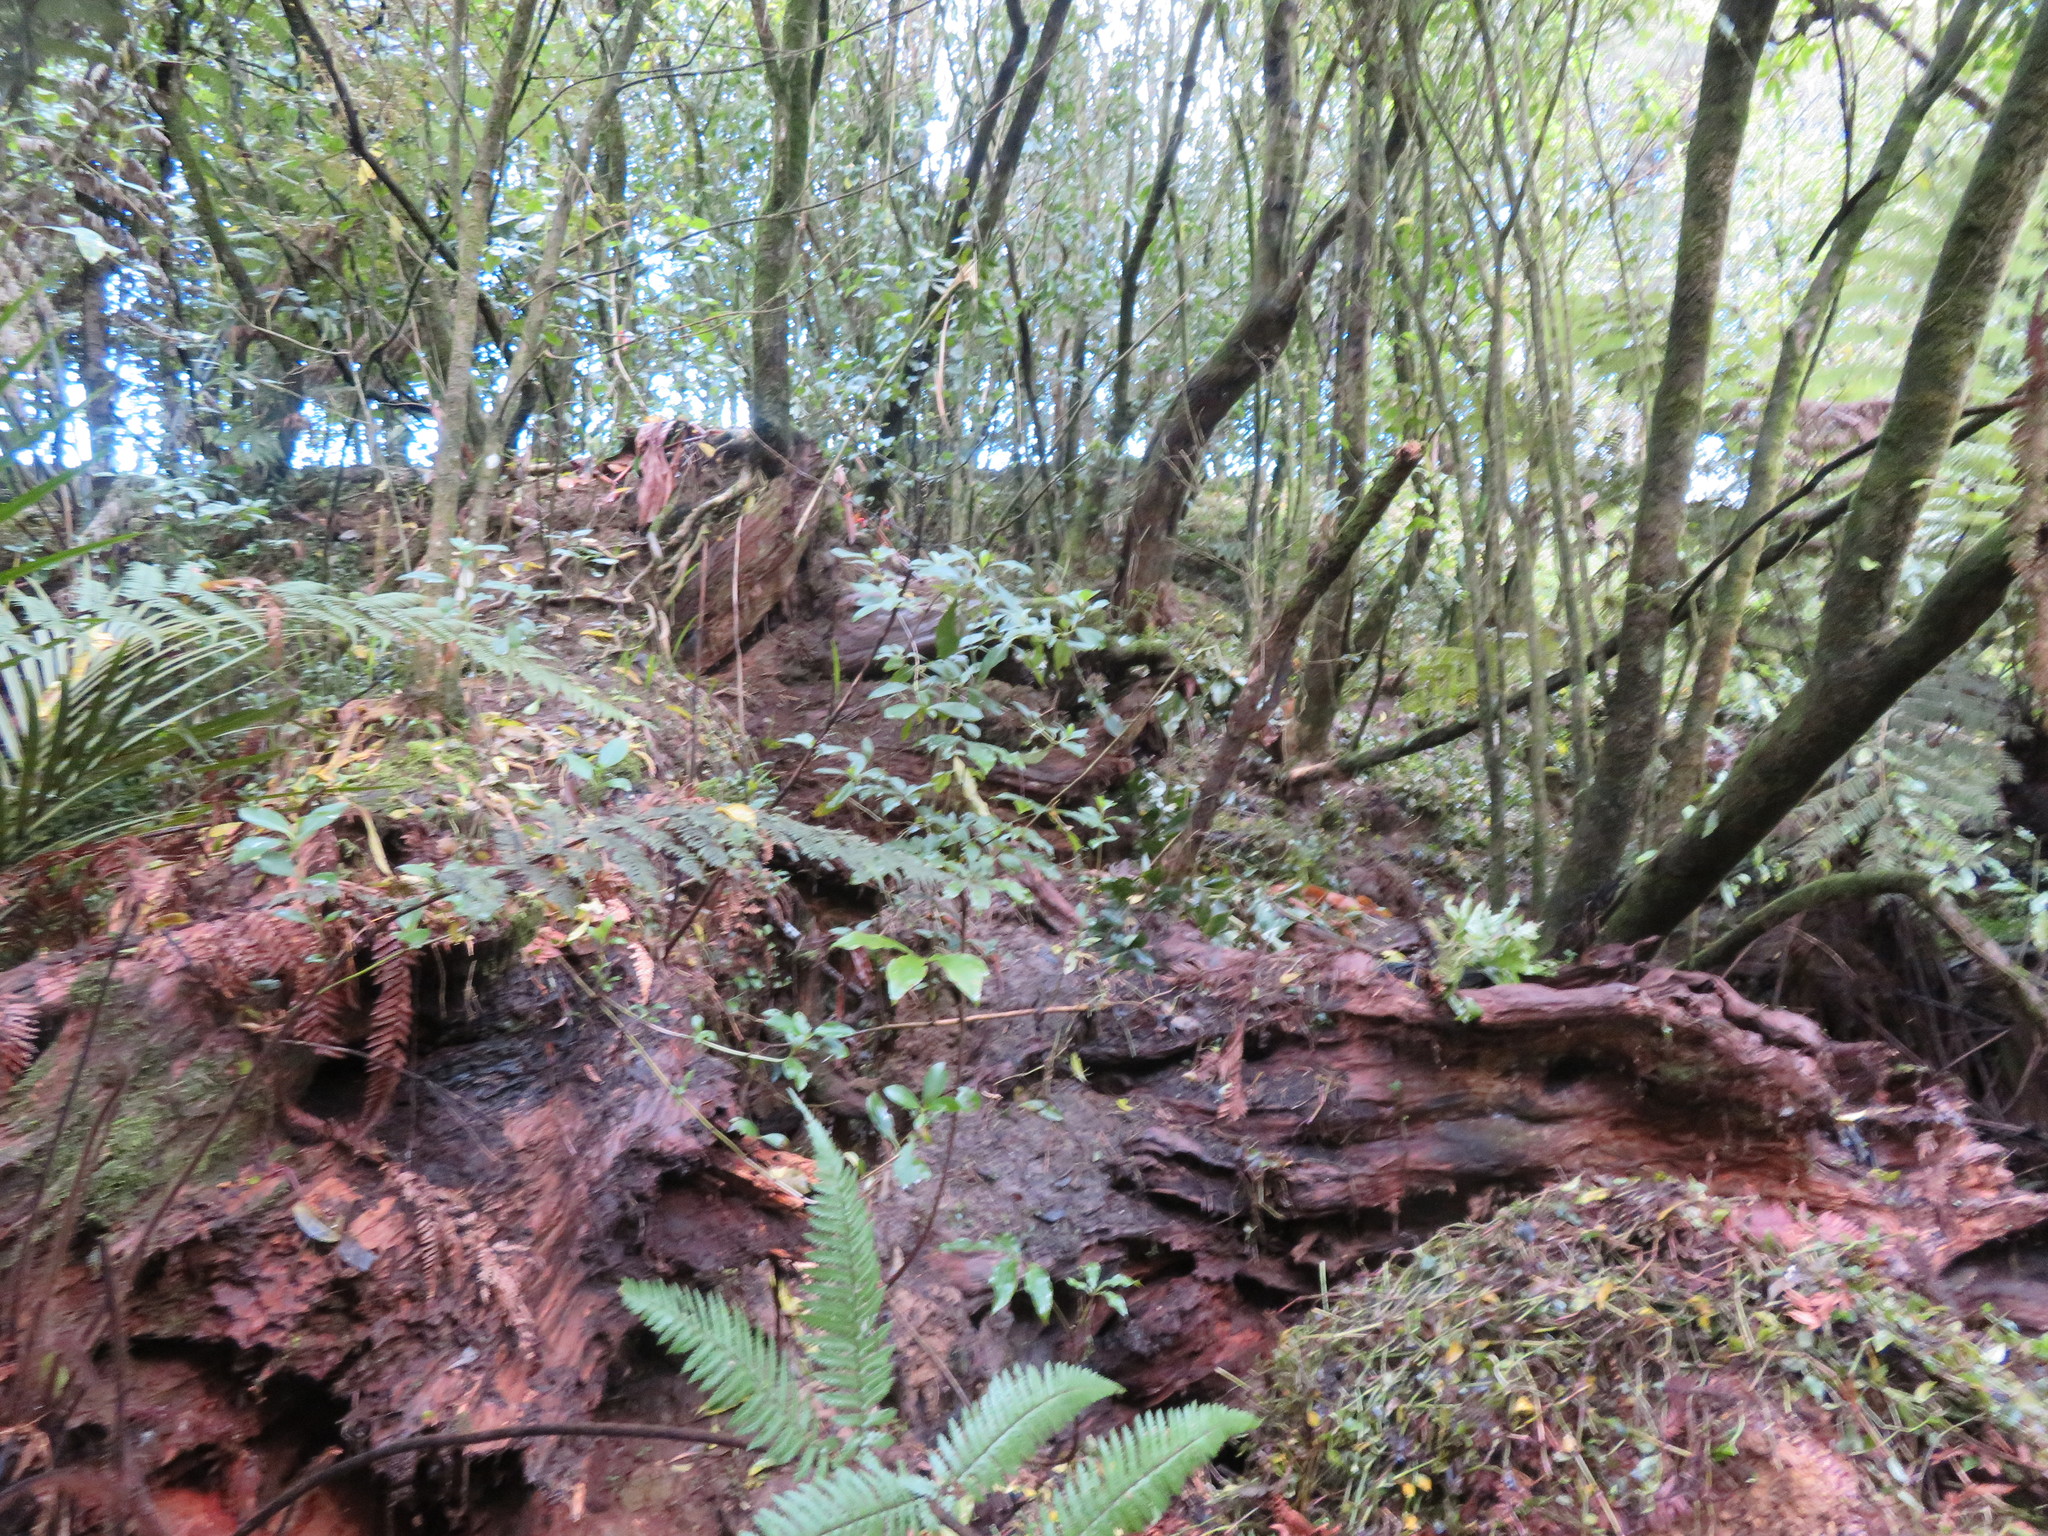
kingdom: Plantae
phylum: Tracheophyta
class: Liliopsida
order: Commelinales
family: Commelinaceae
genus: Tradescantia
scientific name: Tradescantia fluminensis
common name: Wandering-jew
